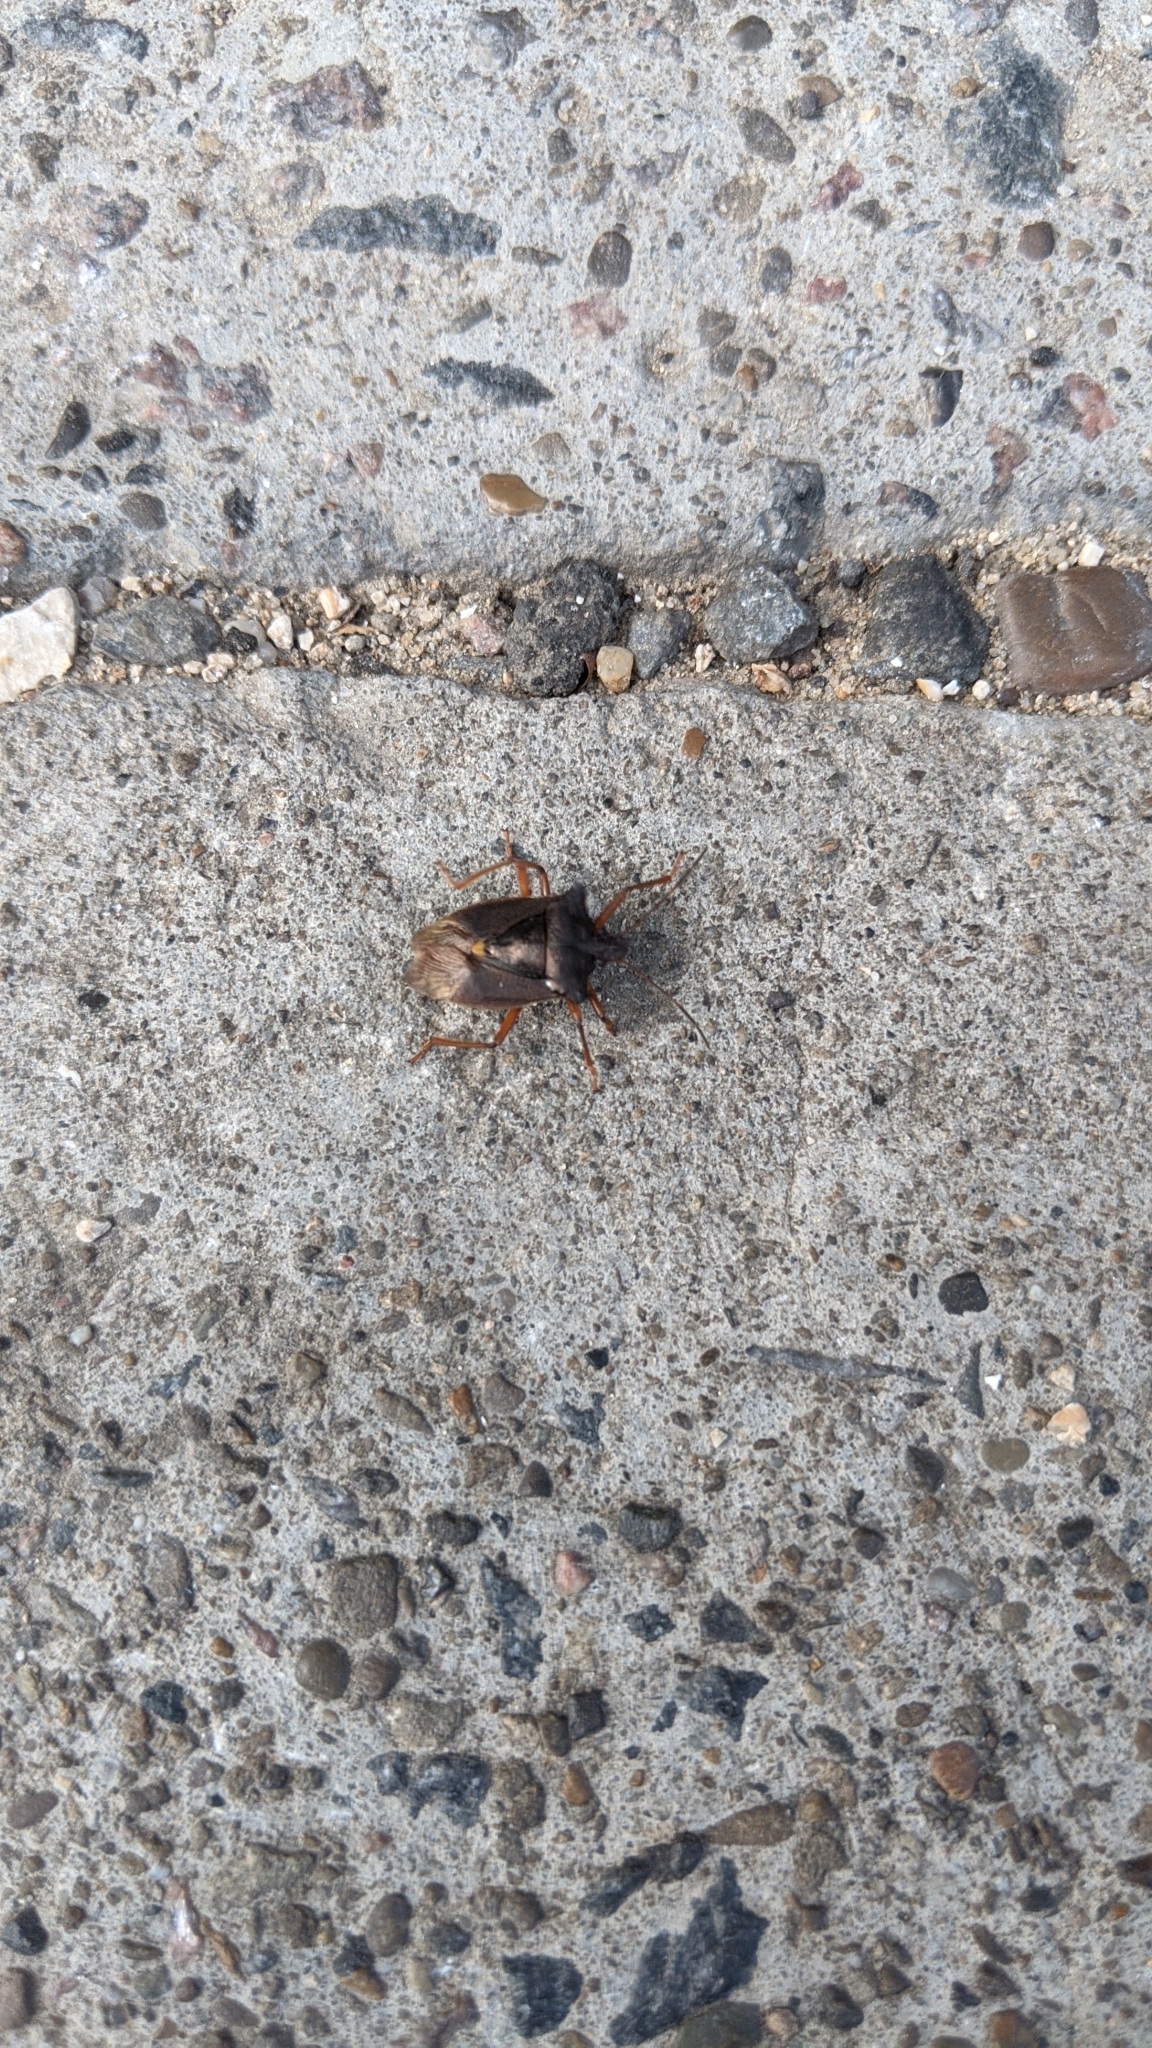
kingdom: Animalia
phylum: Arthropoda
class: Insecta
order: Hemiptera
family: Pentatomidae
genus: Pentatoma
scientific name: Pentatoma rufipes
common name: Forest bug
